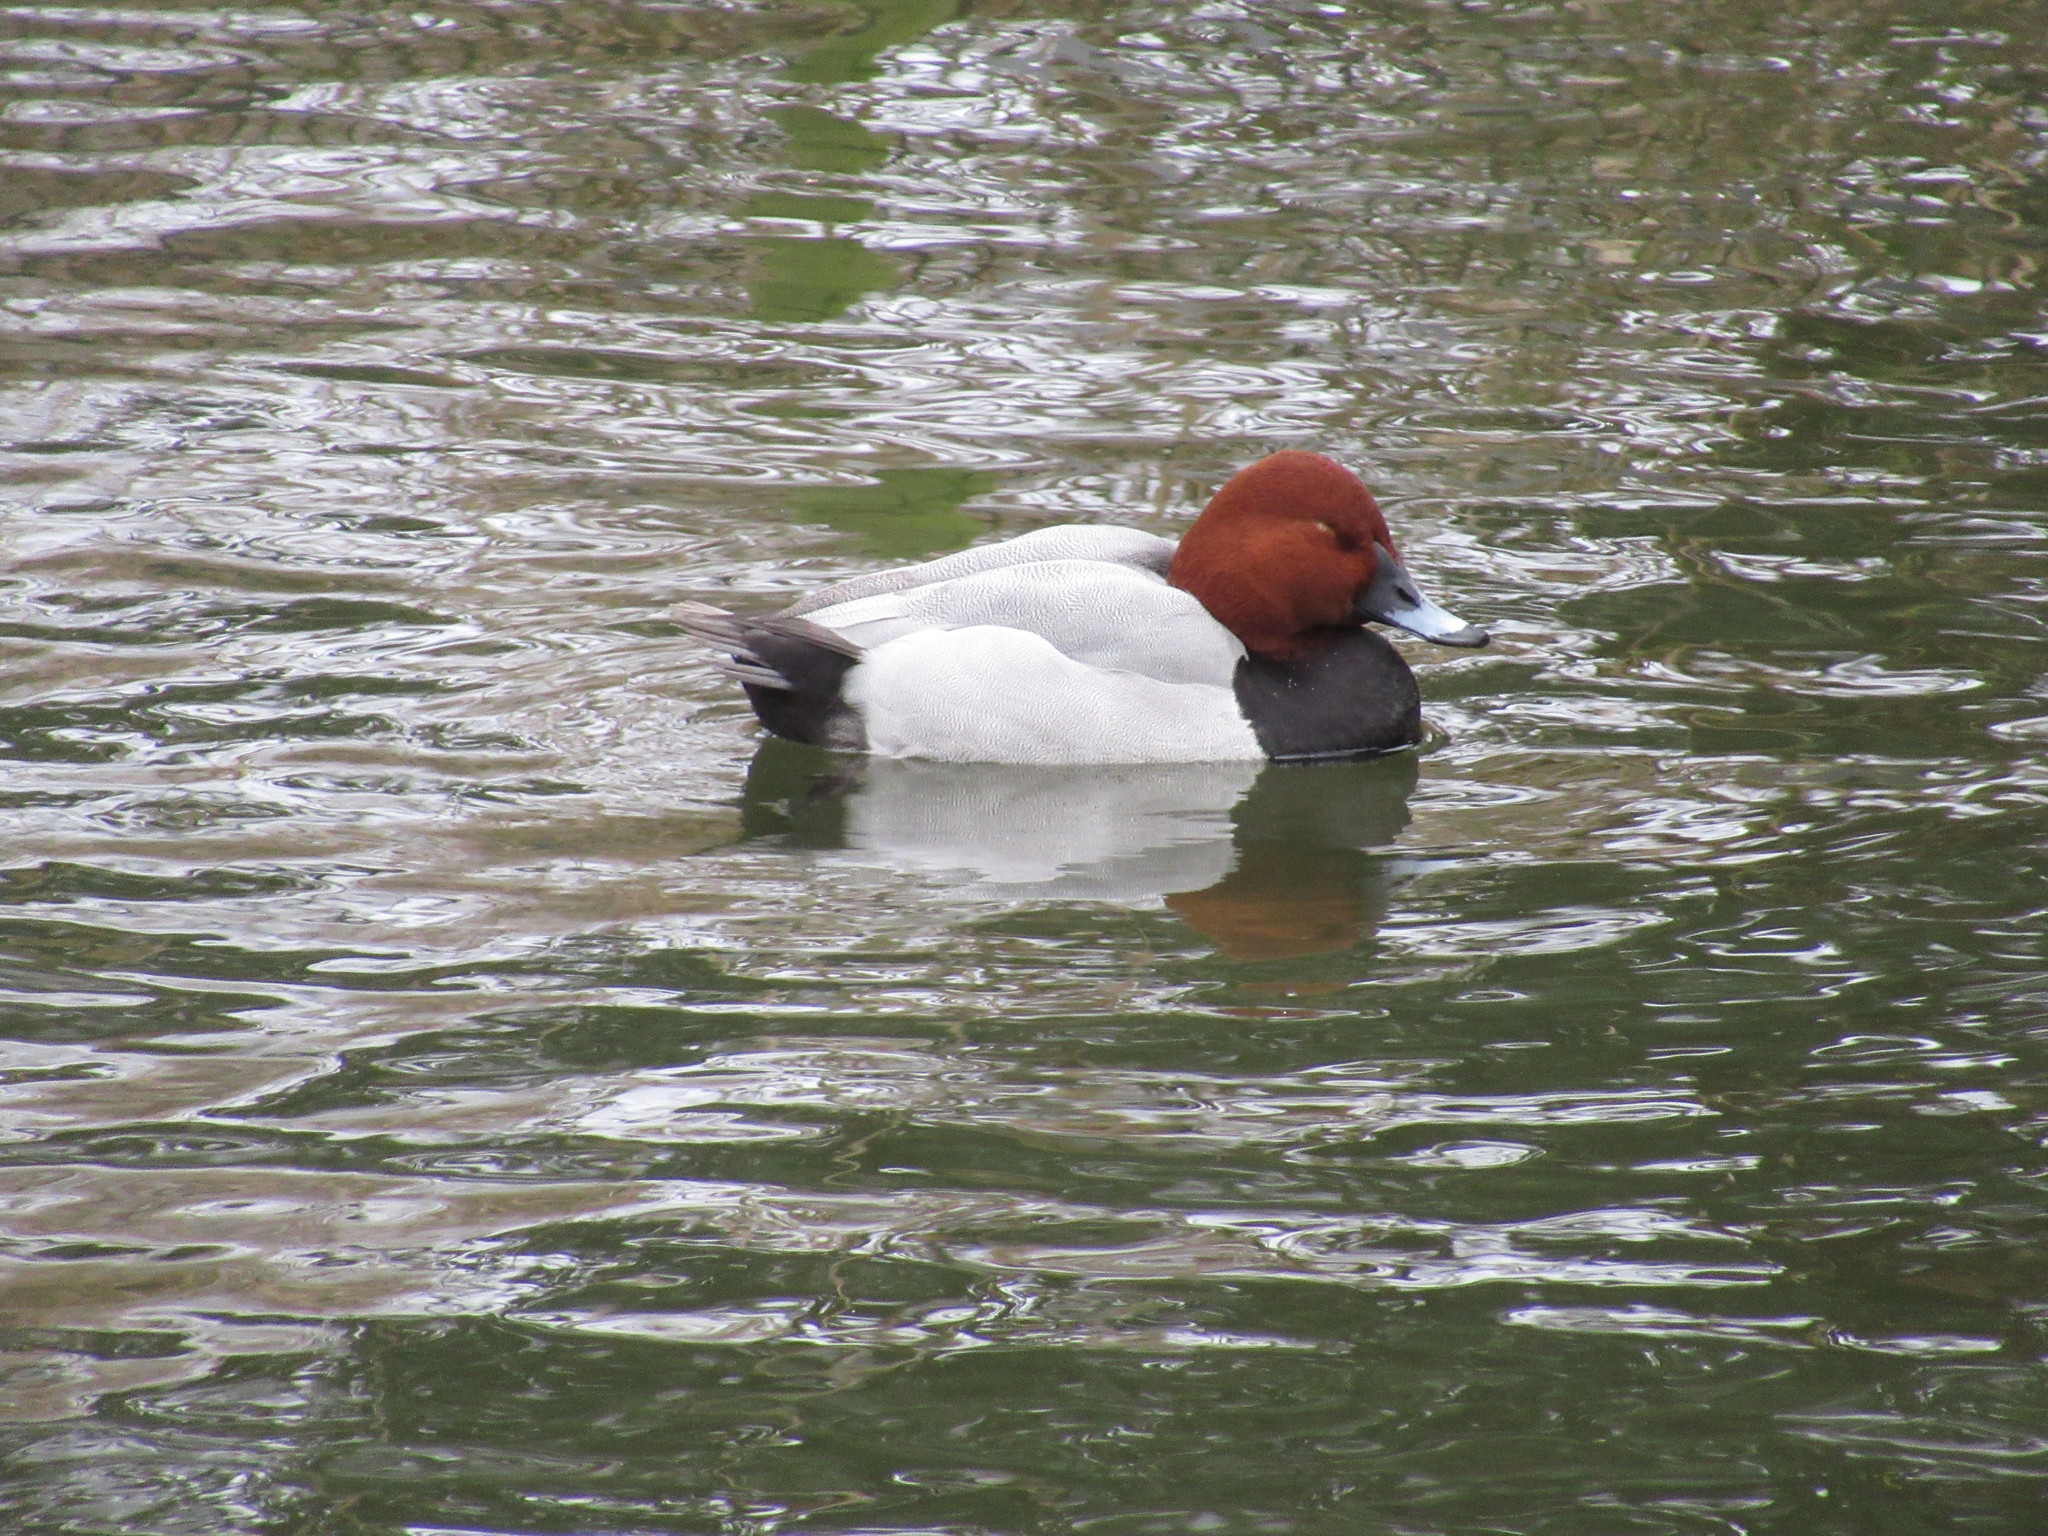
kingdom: Animalia
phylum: Chordata
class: Aves
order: Anseriformes
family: Anatidae
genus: Aythya
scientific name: Aythya ferina
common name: Common pochard
